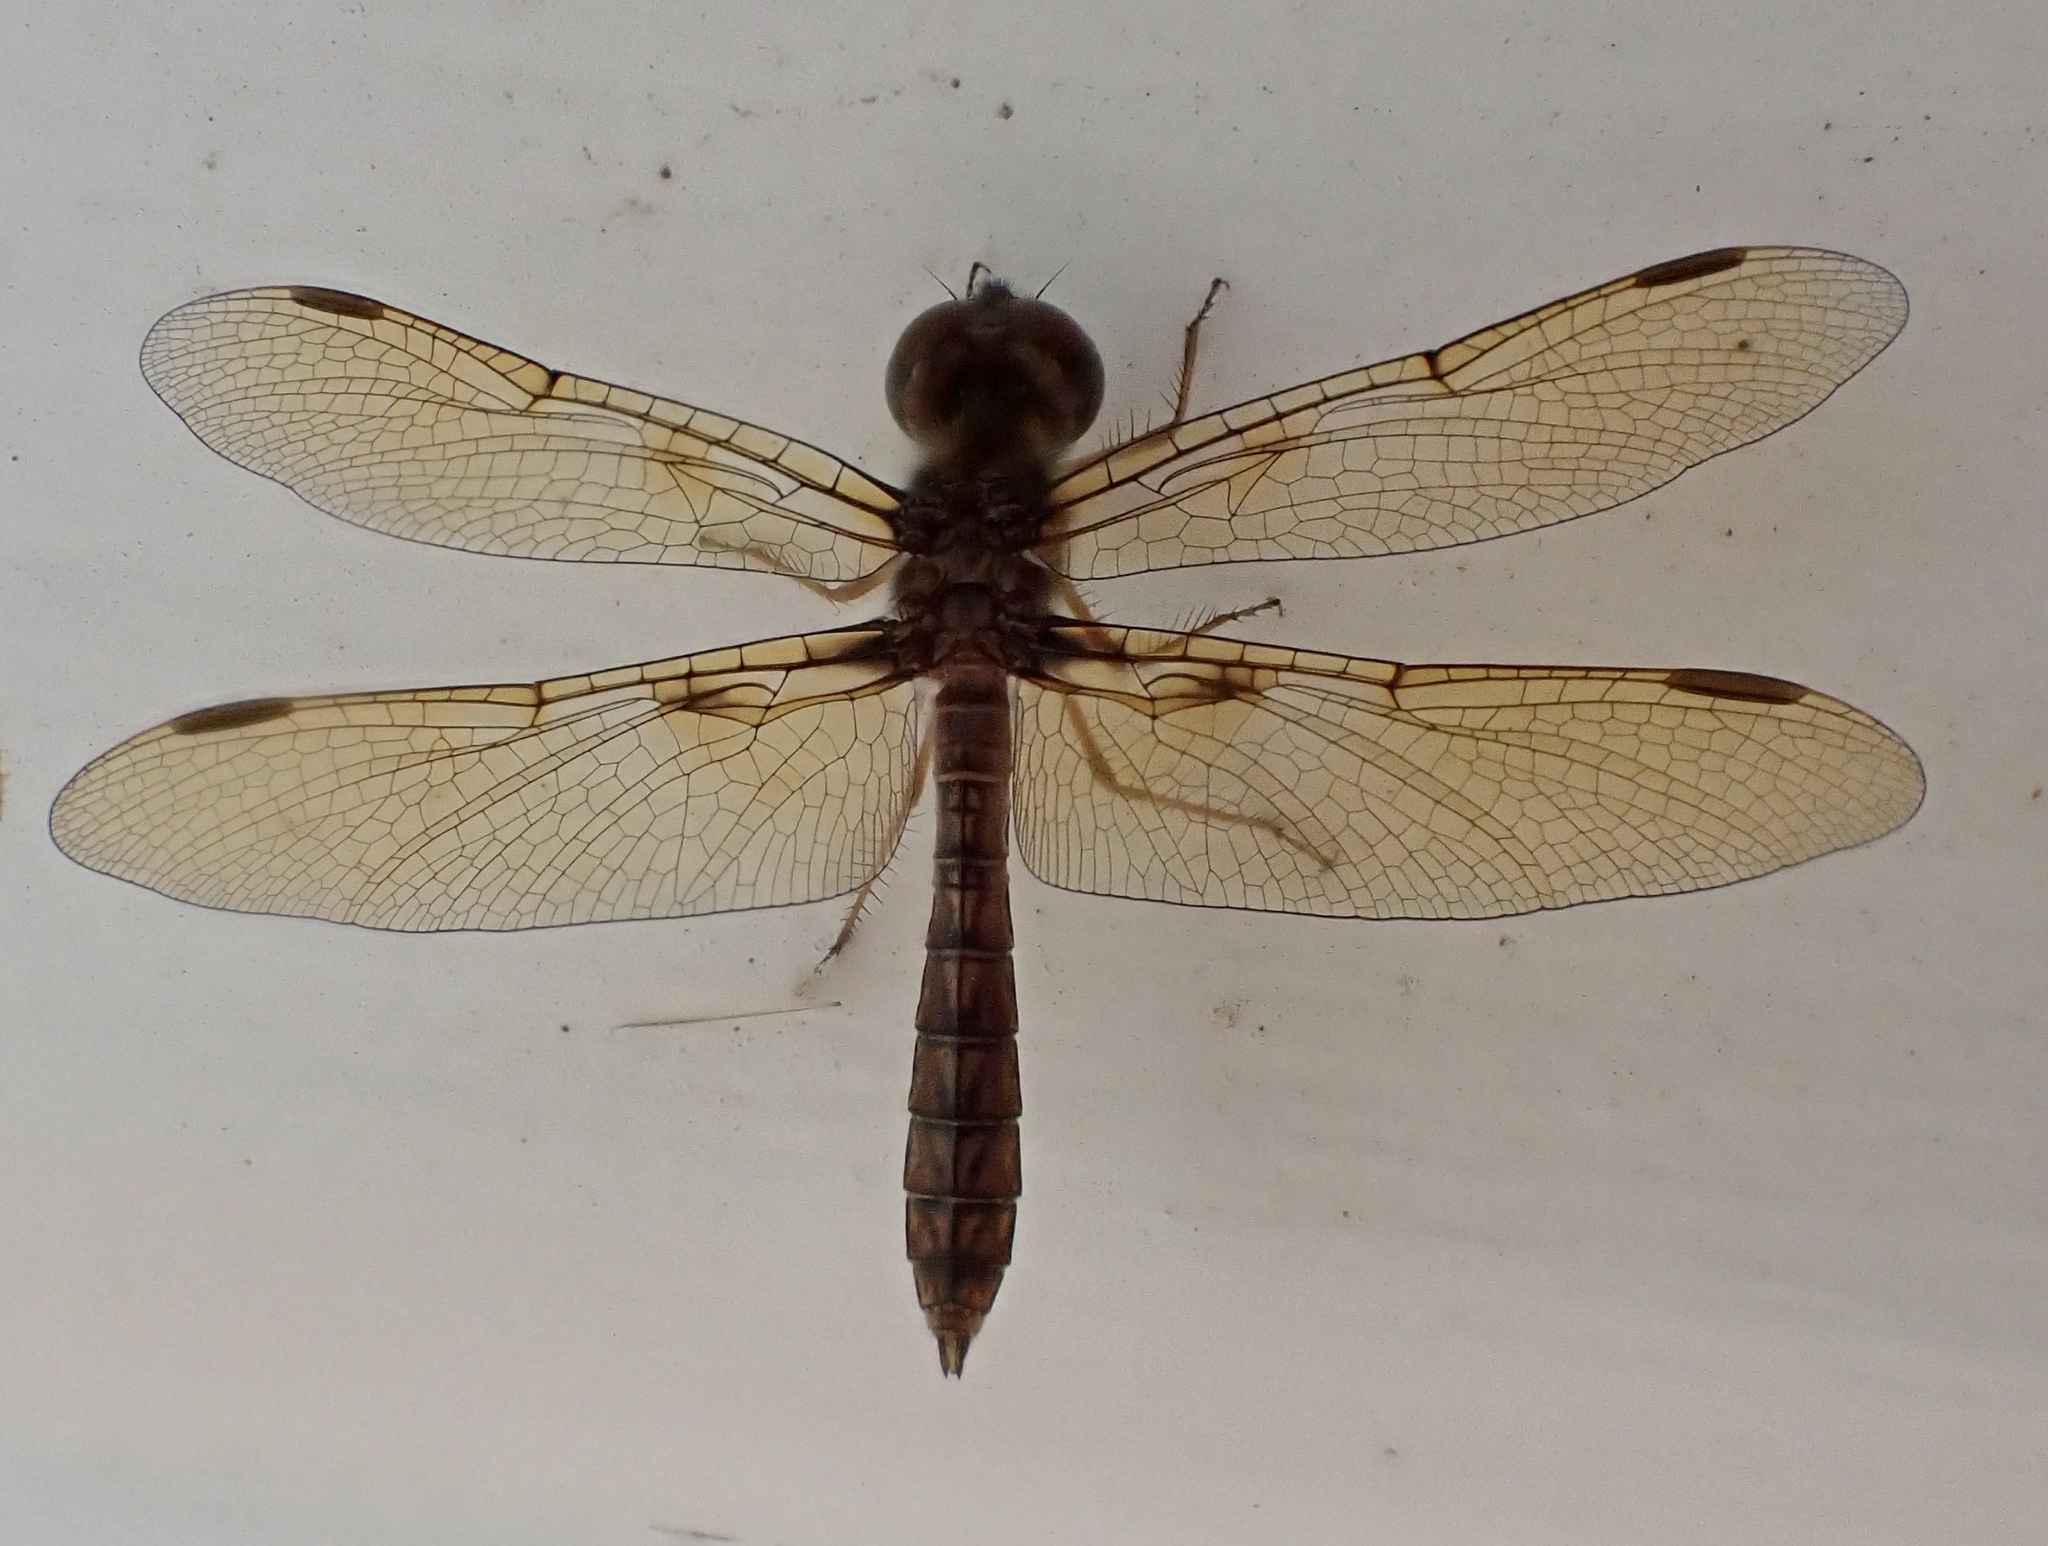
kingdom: Animalia
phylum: Arthropoda
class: Insecta
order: Odonata
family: Libellulidae
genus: Perithemis
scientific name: Perithemis tenera
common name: Eastern amberwing
